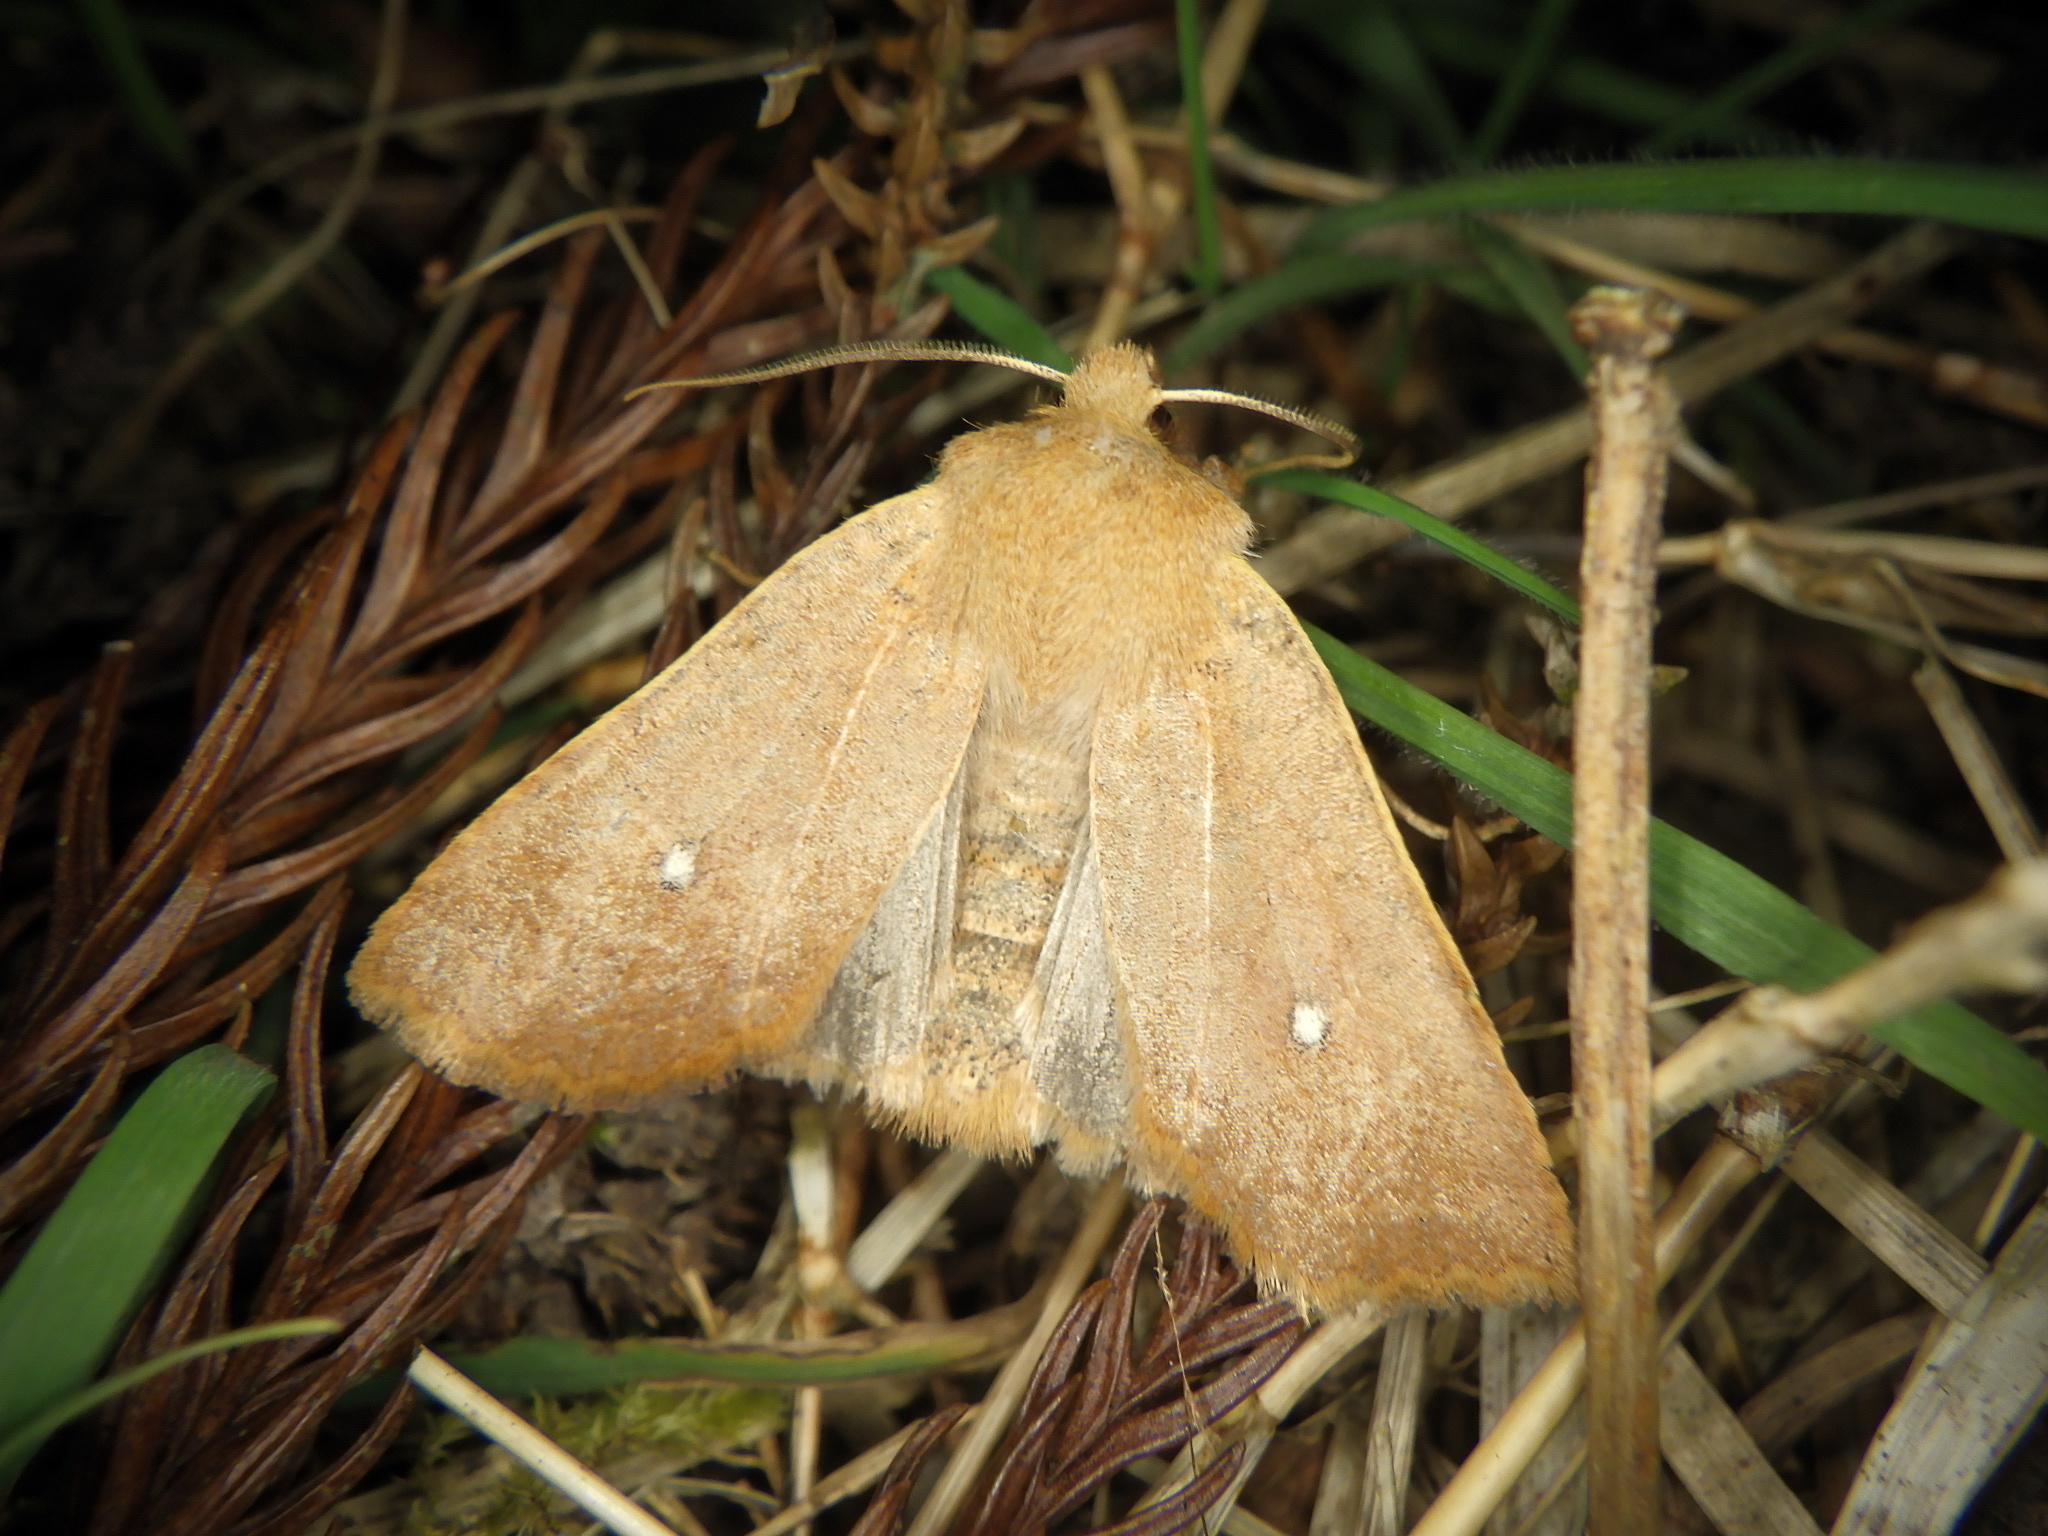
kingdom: Animalia
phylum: Arthropoda
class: Insecta
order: Lepidoptera
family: Noctuidae
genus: Conistra
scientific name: Conistra albipuncta
